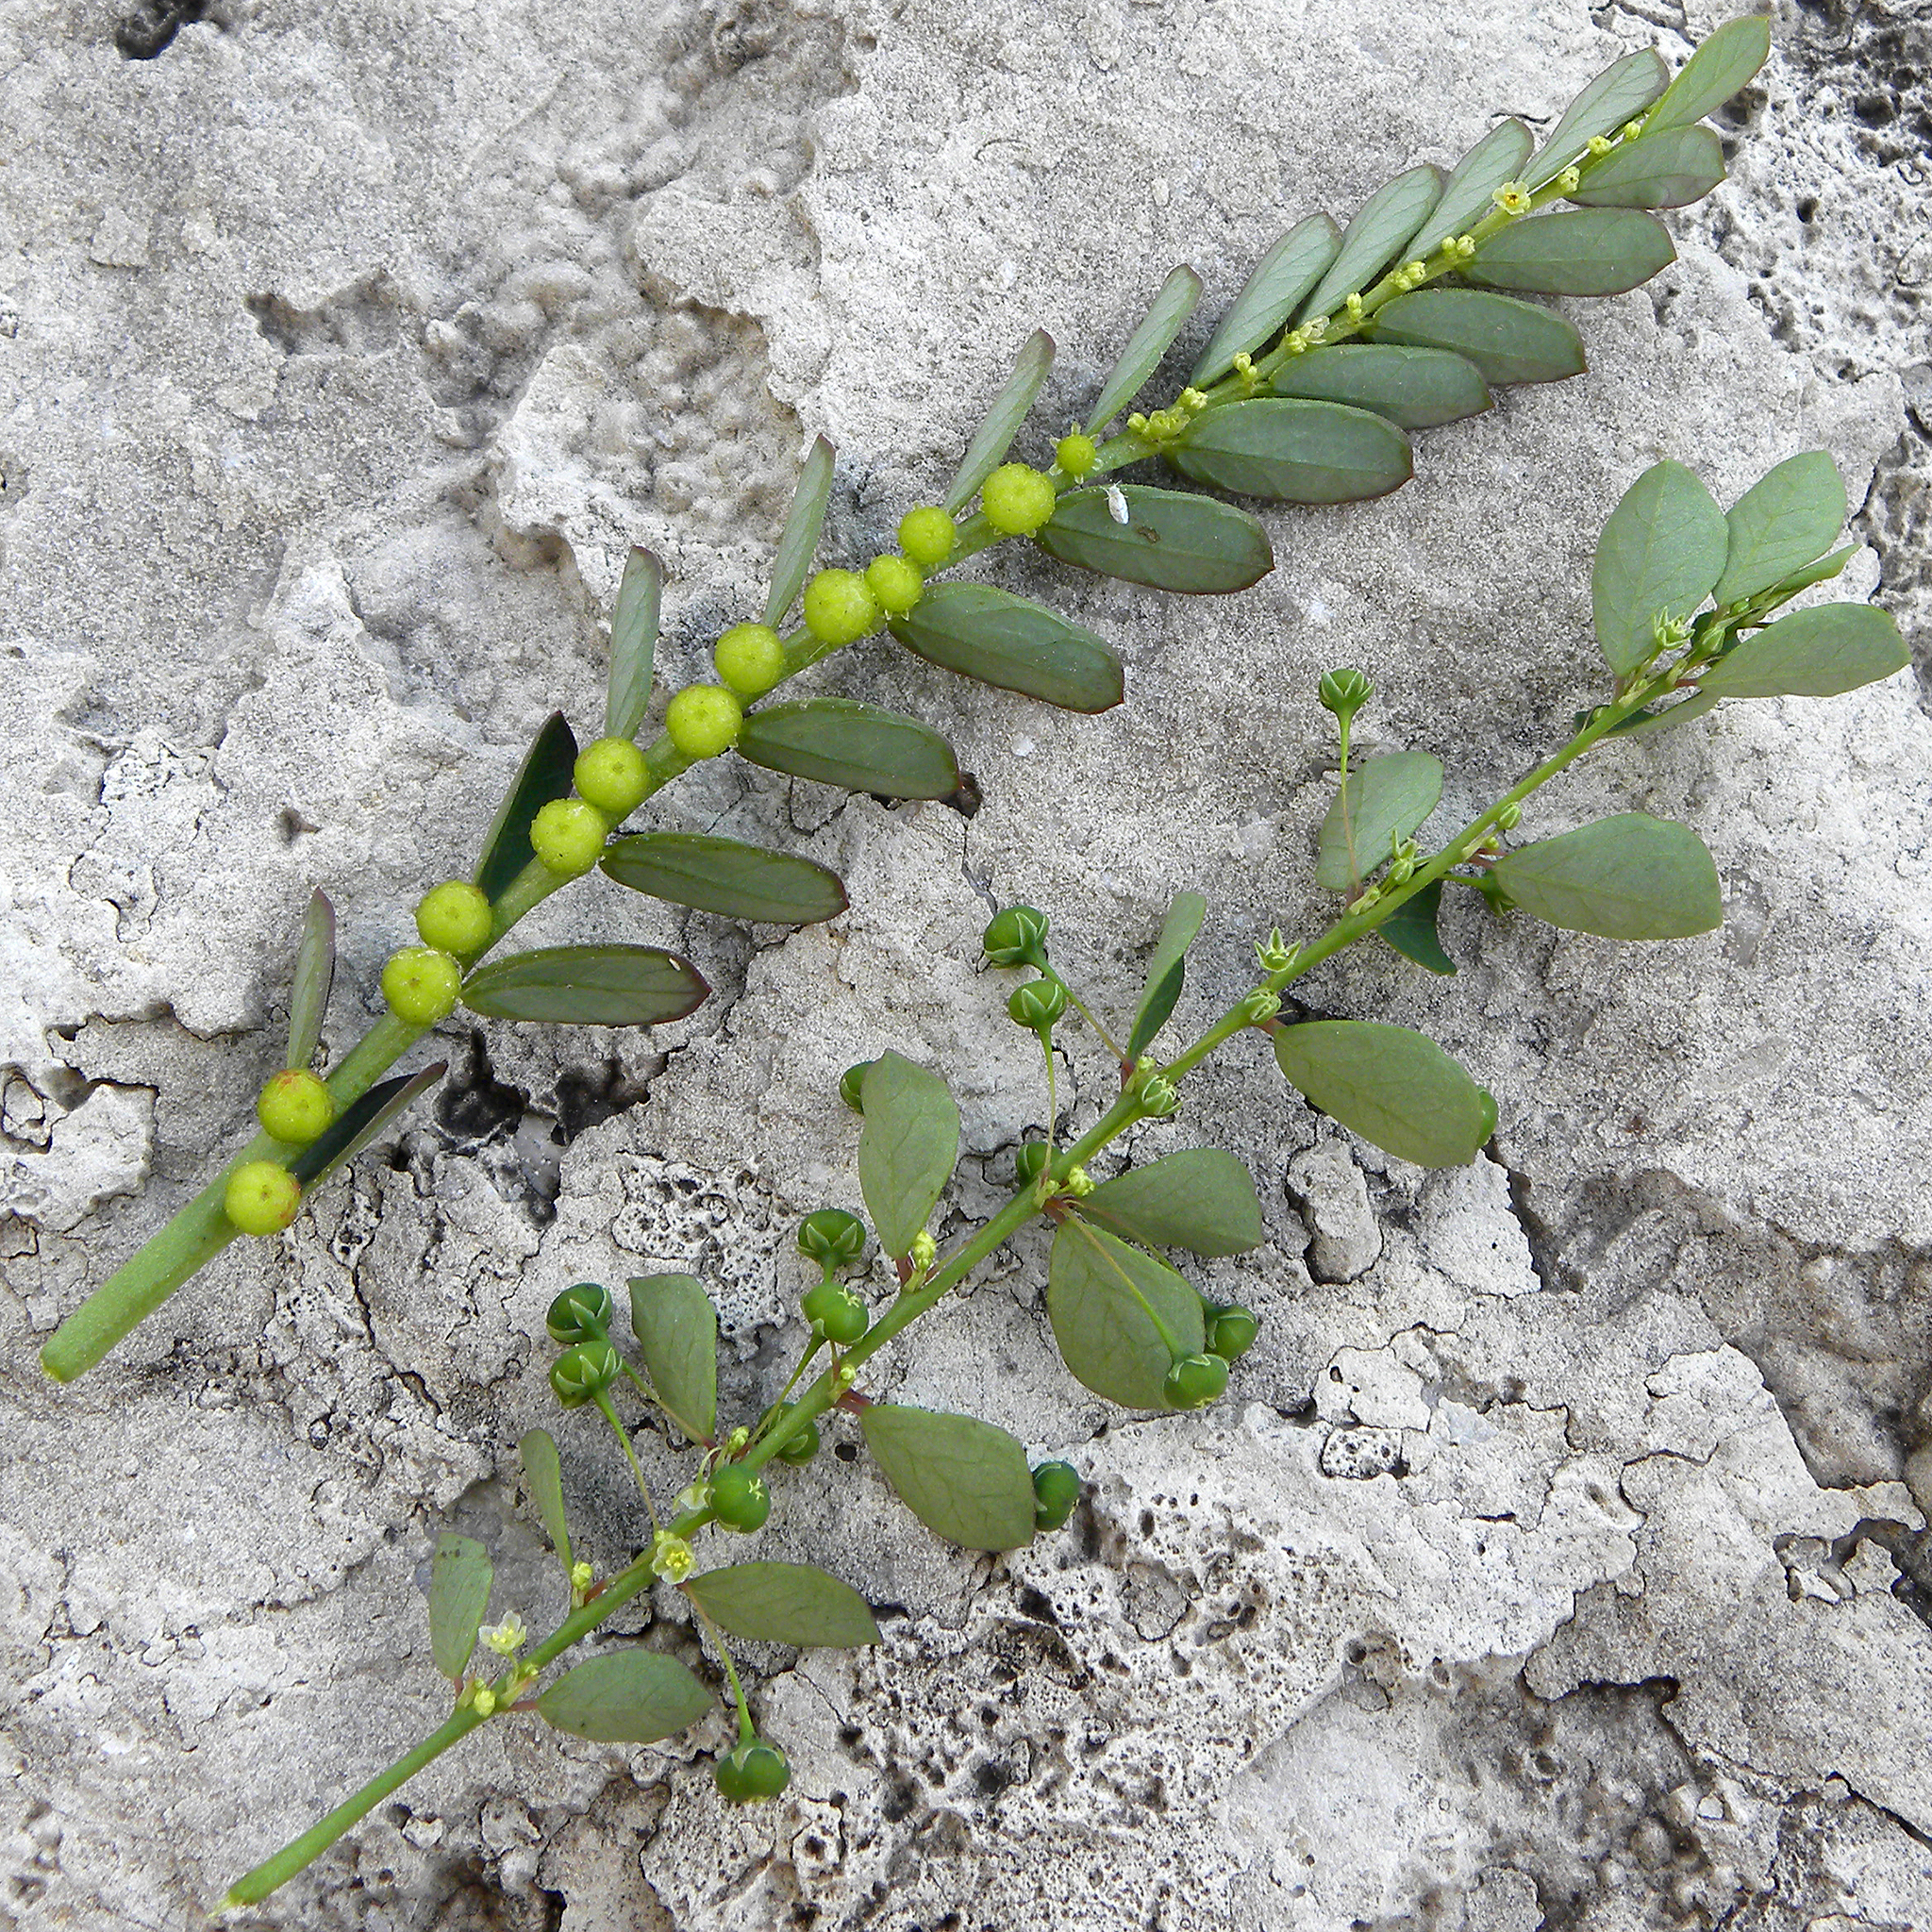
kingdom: Plantae
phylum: Tracheophyta
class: Magnoliopsida
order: Malpighiales
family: Phyllanthaceae
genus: Phyllanthus
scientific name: Phyllanthus tenellus
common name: Mascarene island leaf-flower
